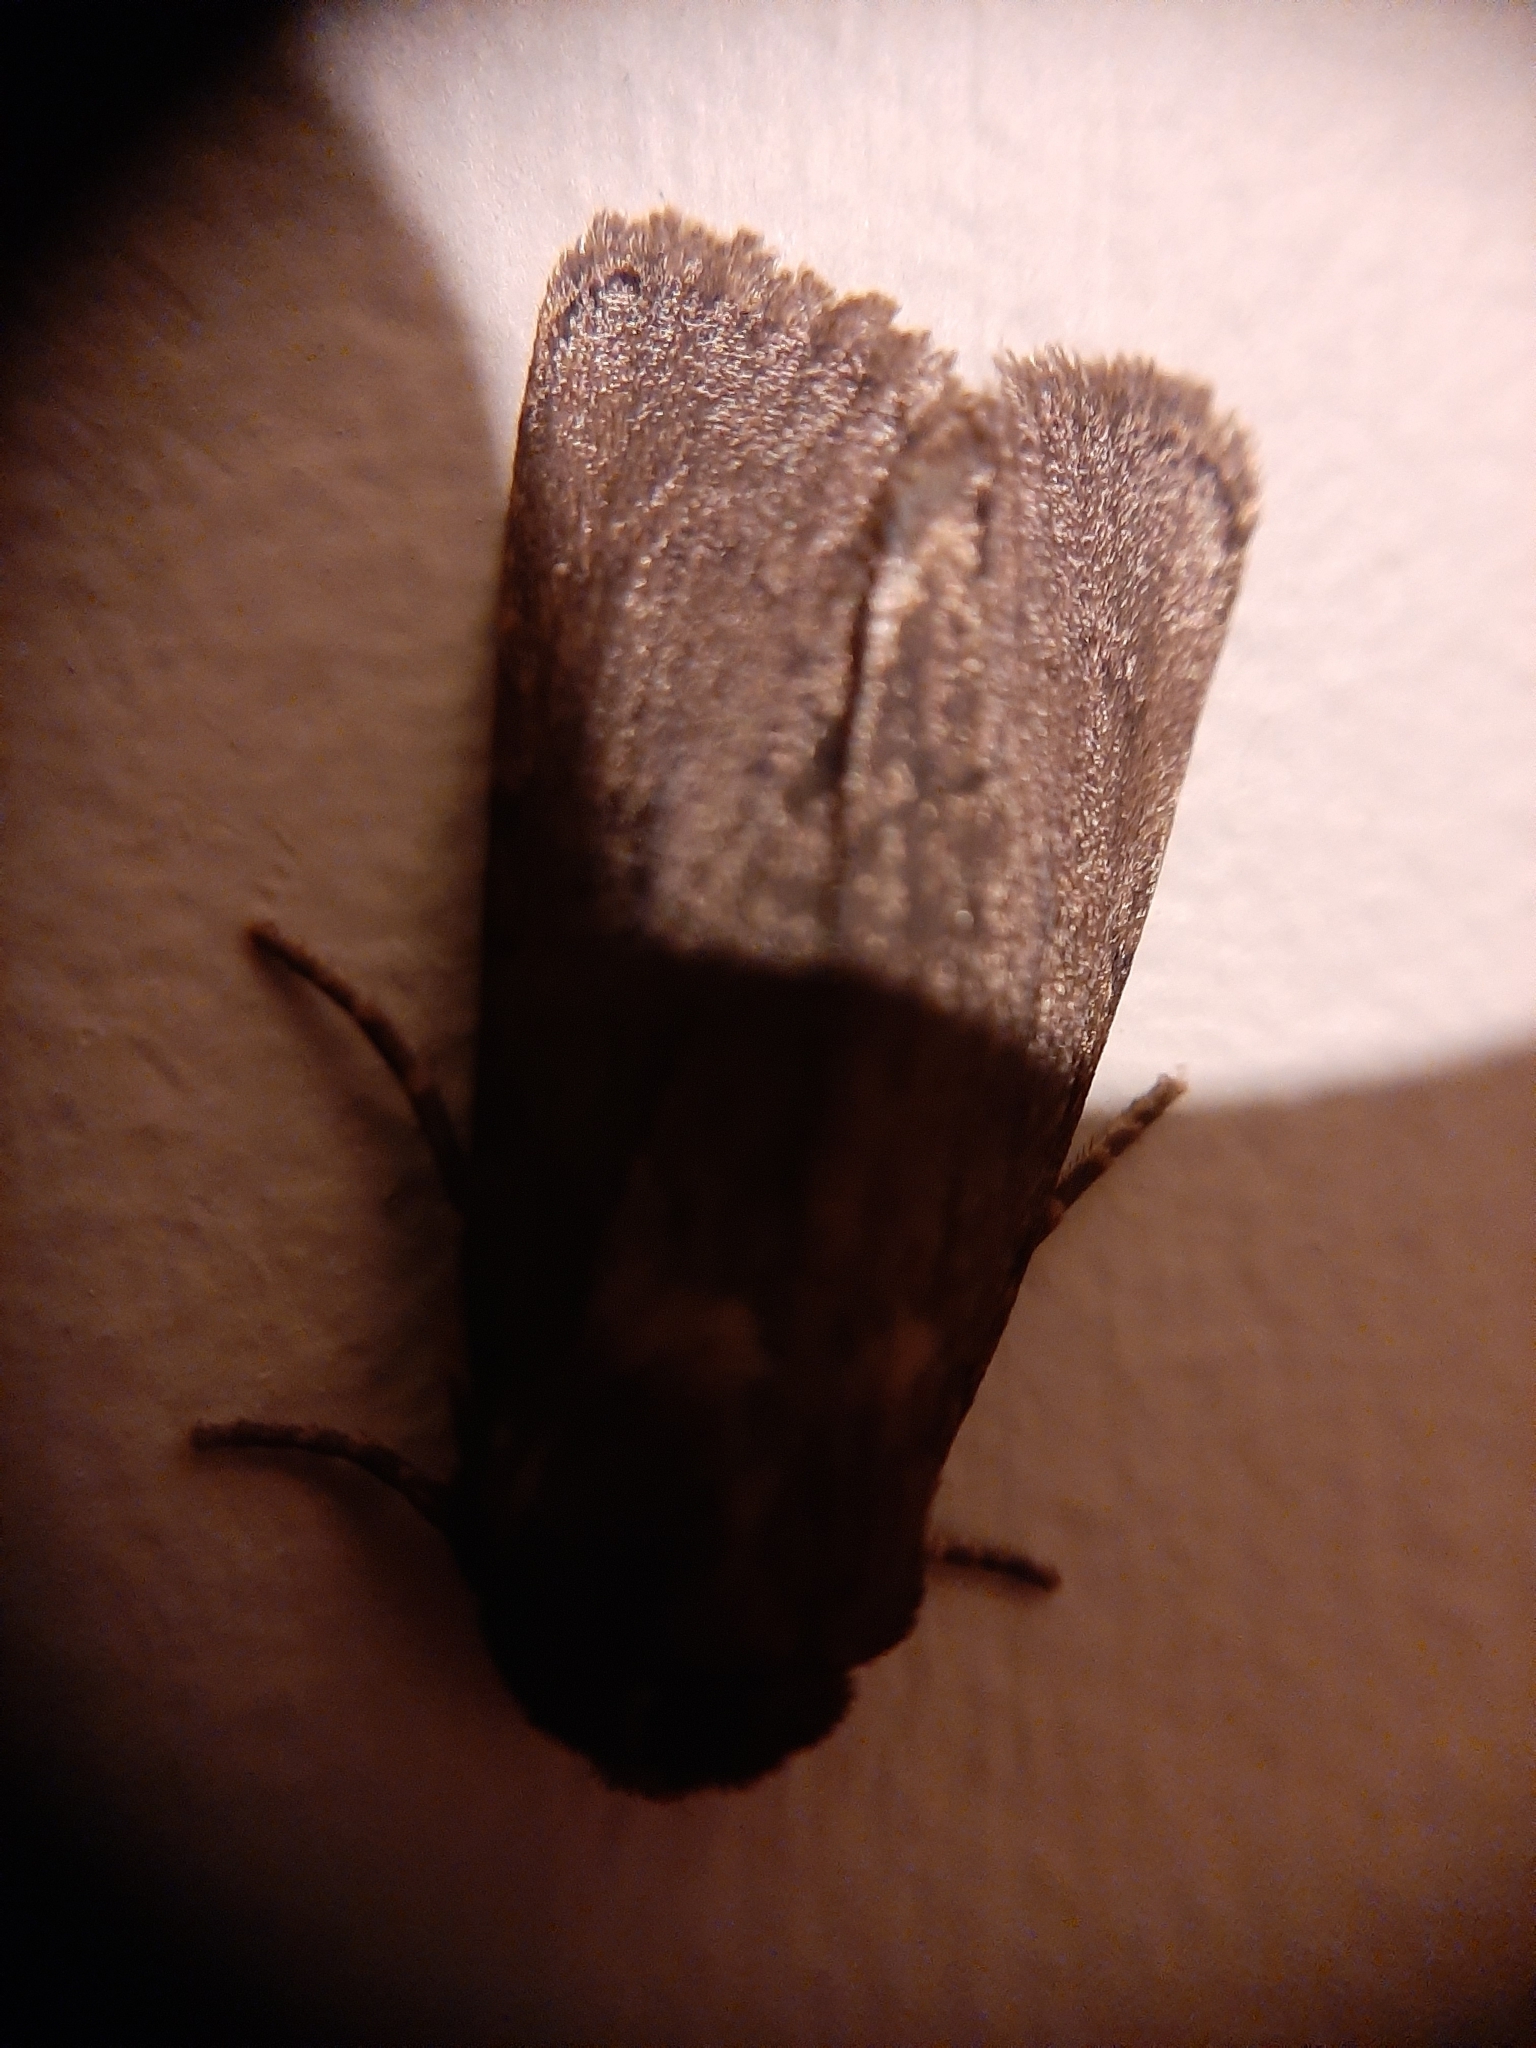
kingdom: Animalia
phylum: Arthropoda
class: Insecta
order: Lepidoptera
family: Noctuidae
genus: Bityla
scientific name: Bityla defigurata
